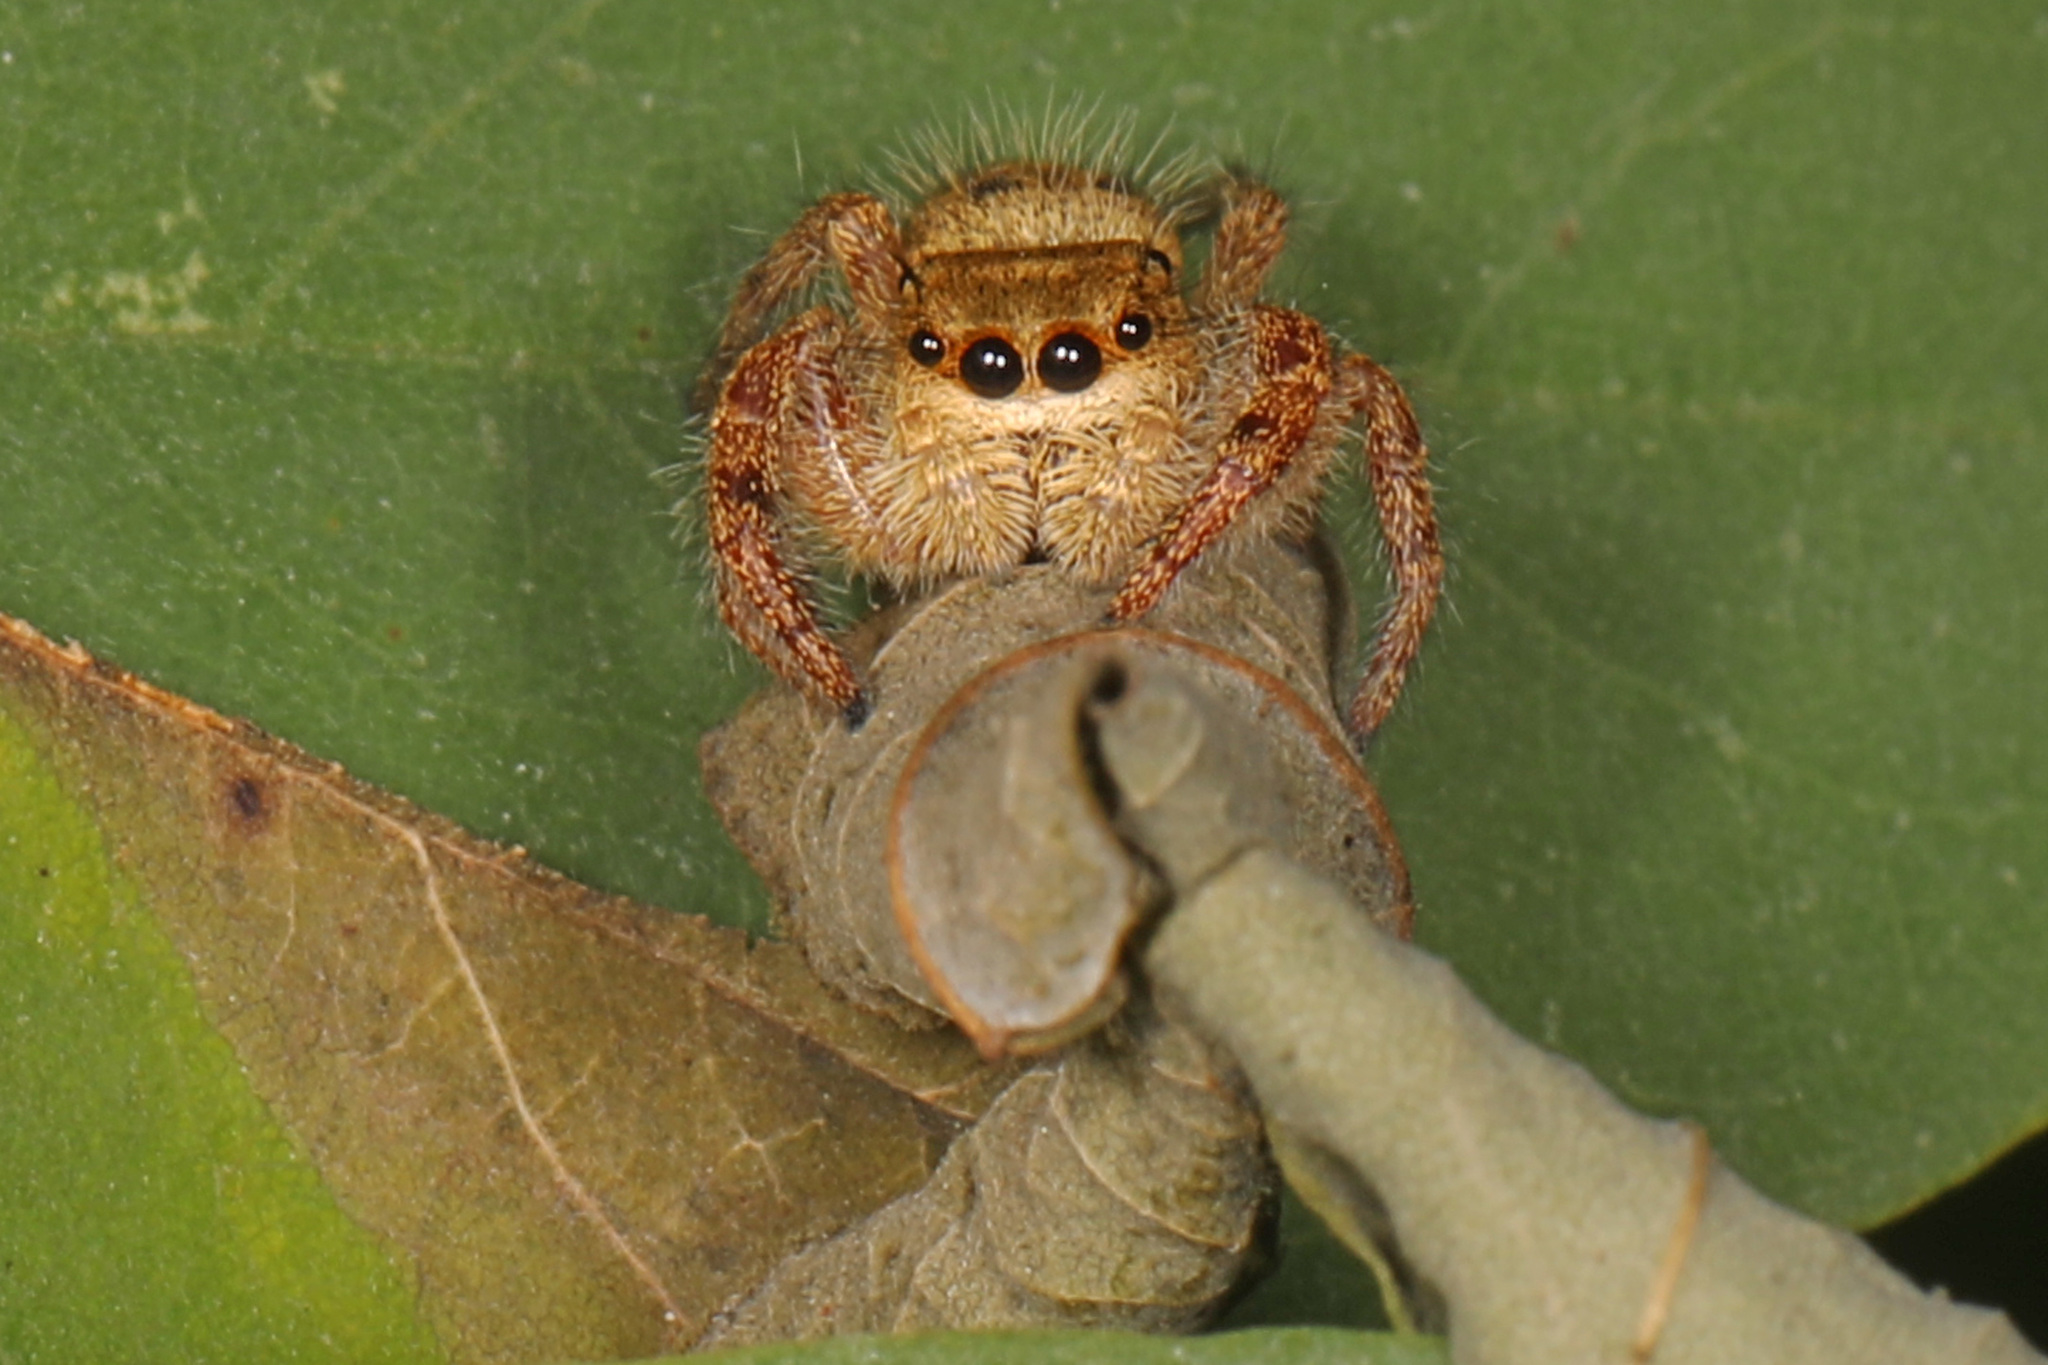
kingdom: Animalia
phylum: Arthropoda
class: Arachnida
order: Araneae
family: Salticidae
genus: Phidippus
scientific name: Phidippus princeps
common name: Grayish jumping spider
